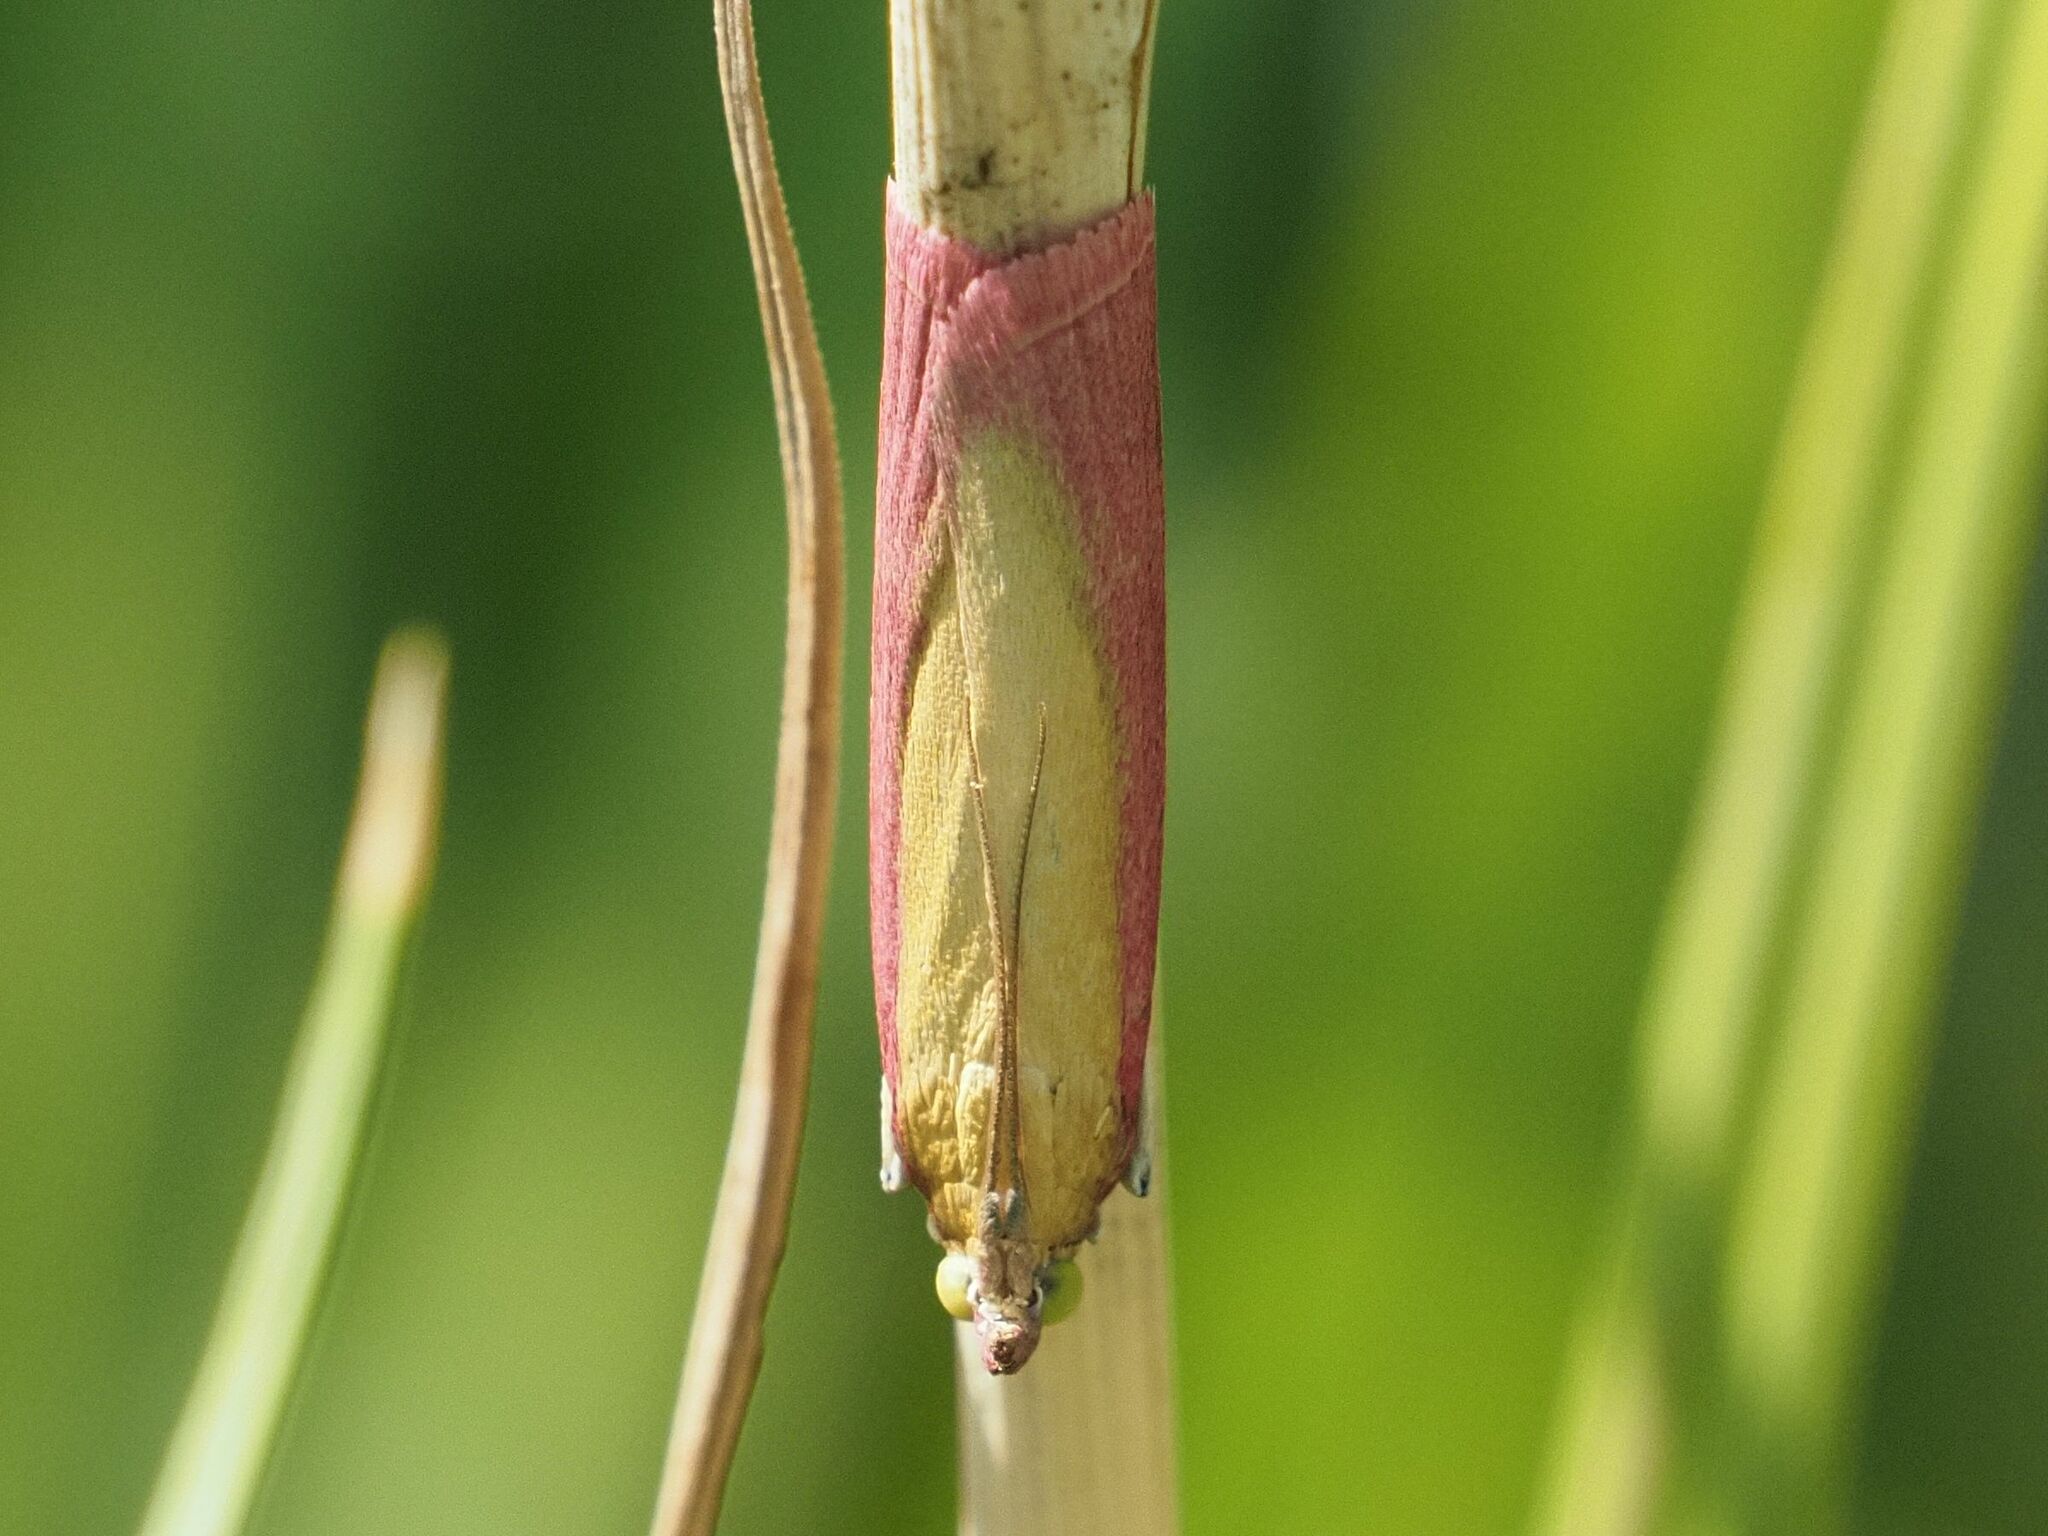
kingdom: Animalia
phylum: Arthropoda
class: Insecta
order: Lepidoptera
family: Pyralidae
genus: Oncocera
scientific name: Oncocera semirubella
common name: Rosy-striped knot-horn
